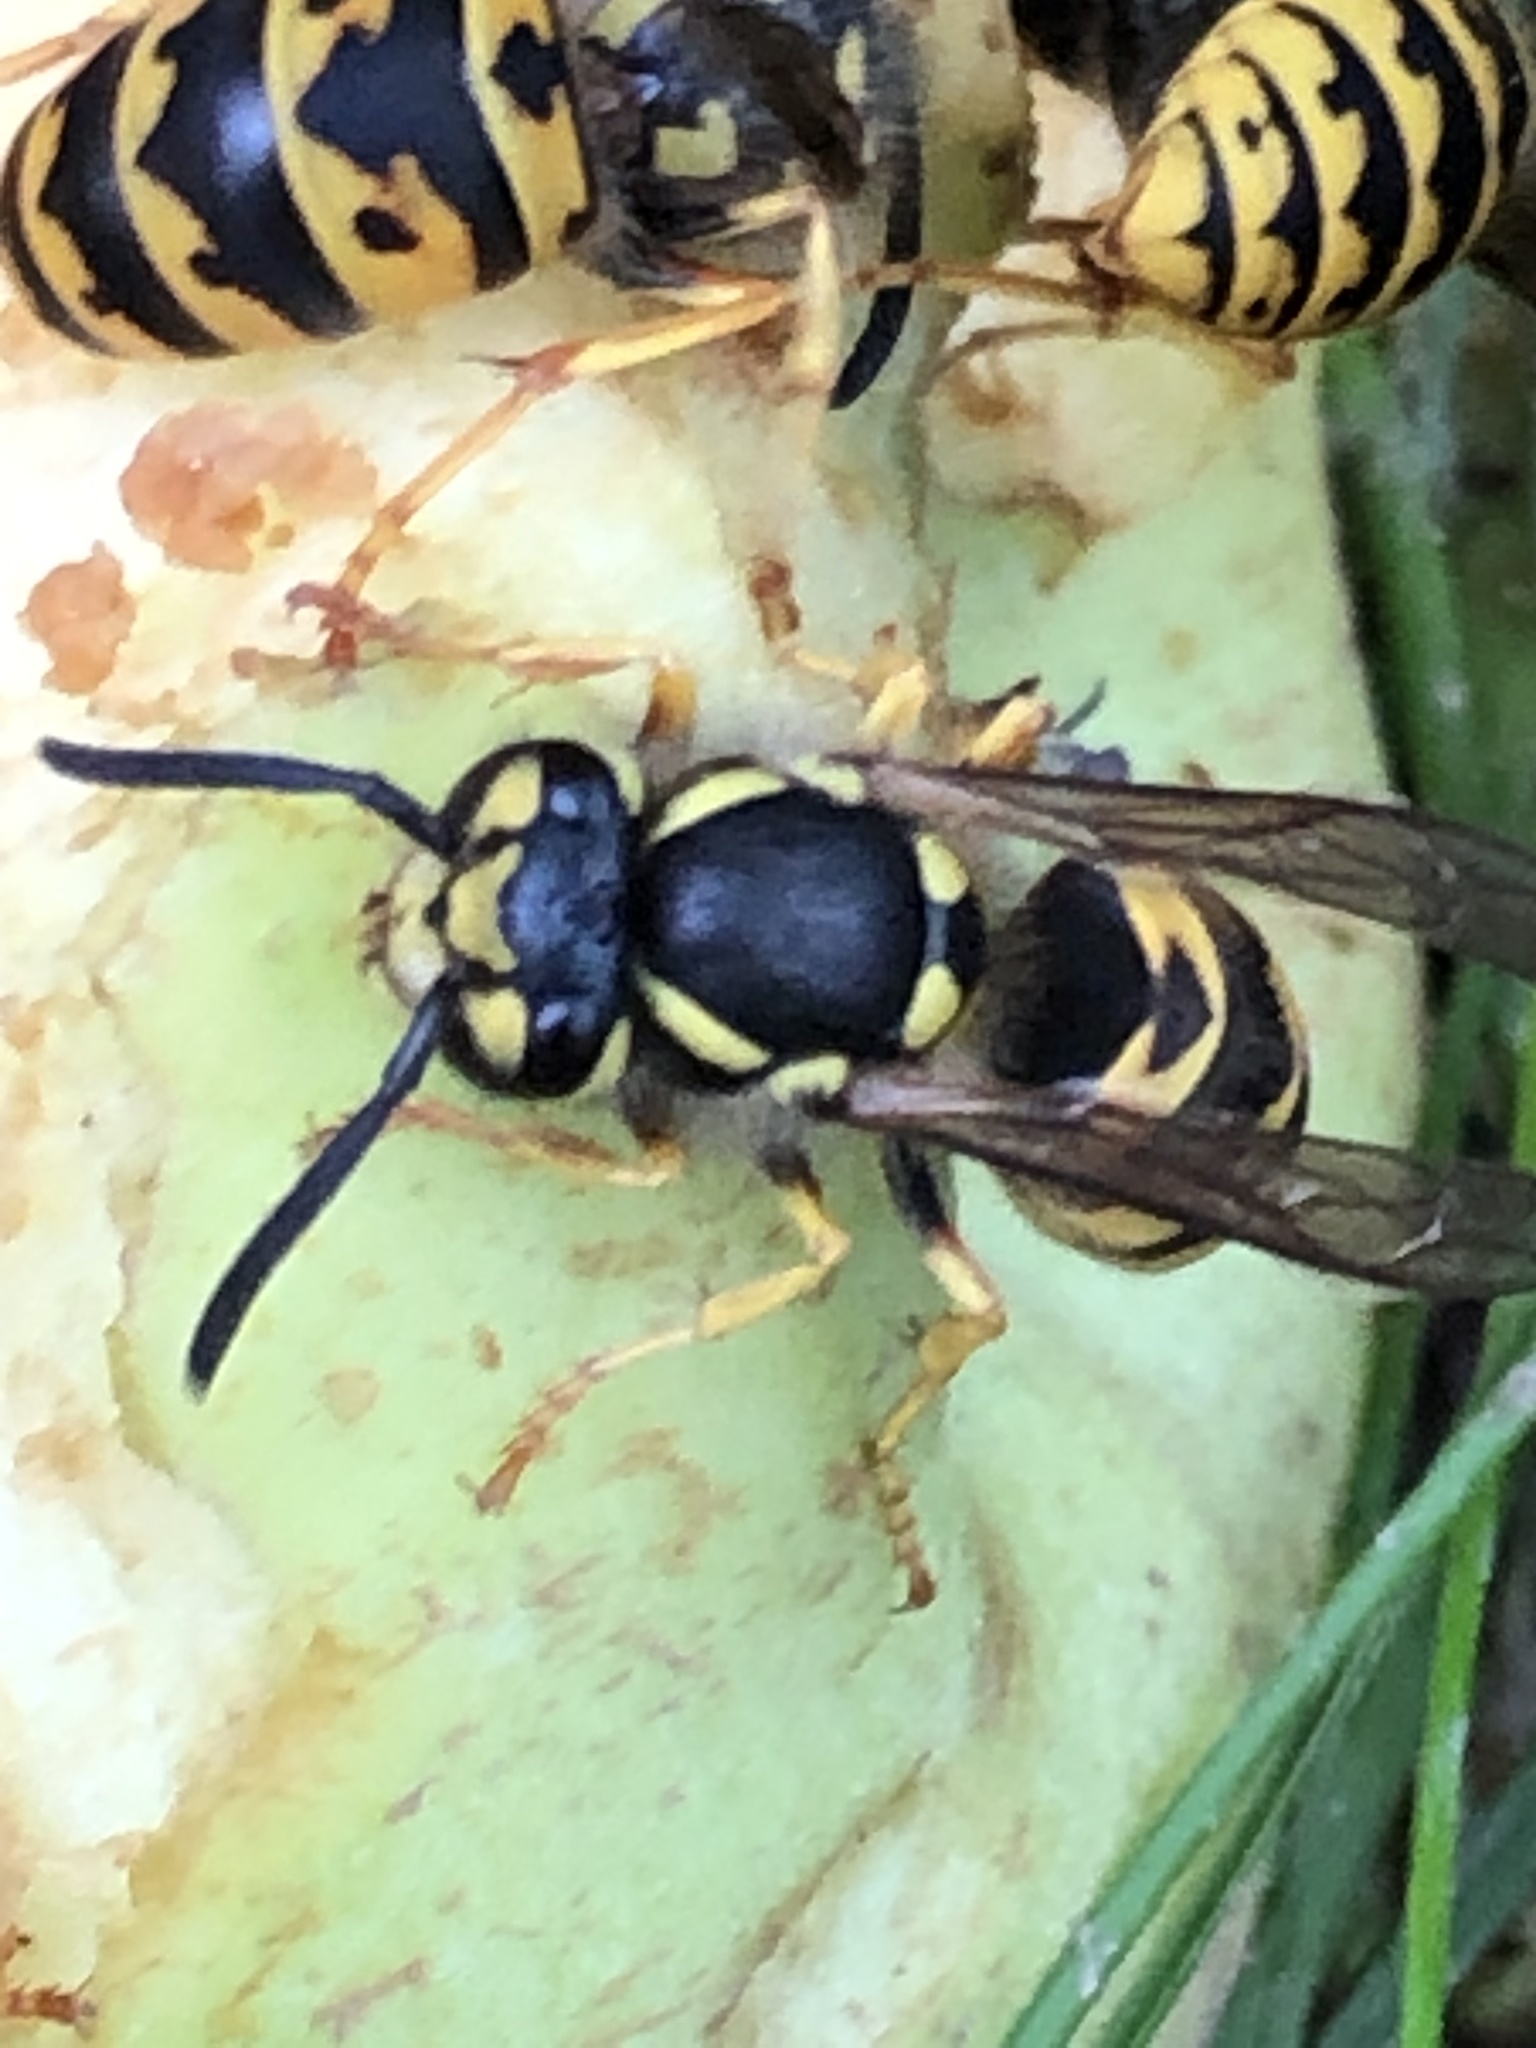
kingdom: Animalia
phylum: Arthropoda
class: Insecta
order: Hymenoptera
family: Vespidae
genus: Vespula
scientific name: Vespula germanica
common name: German wasp
